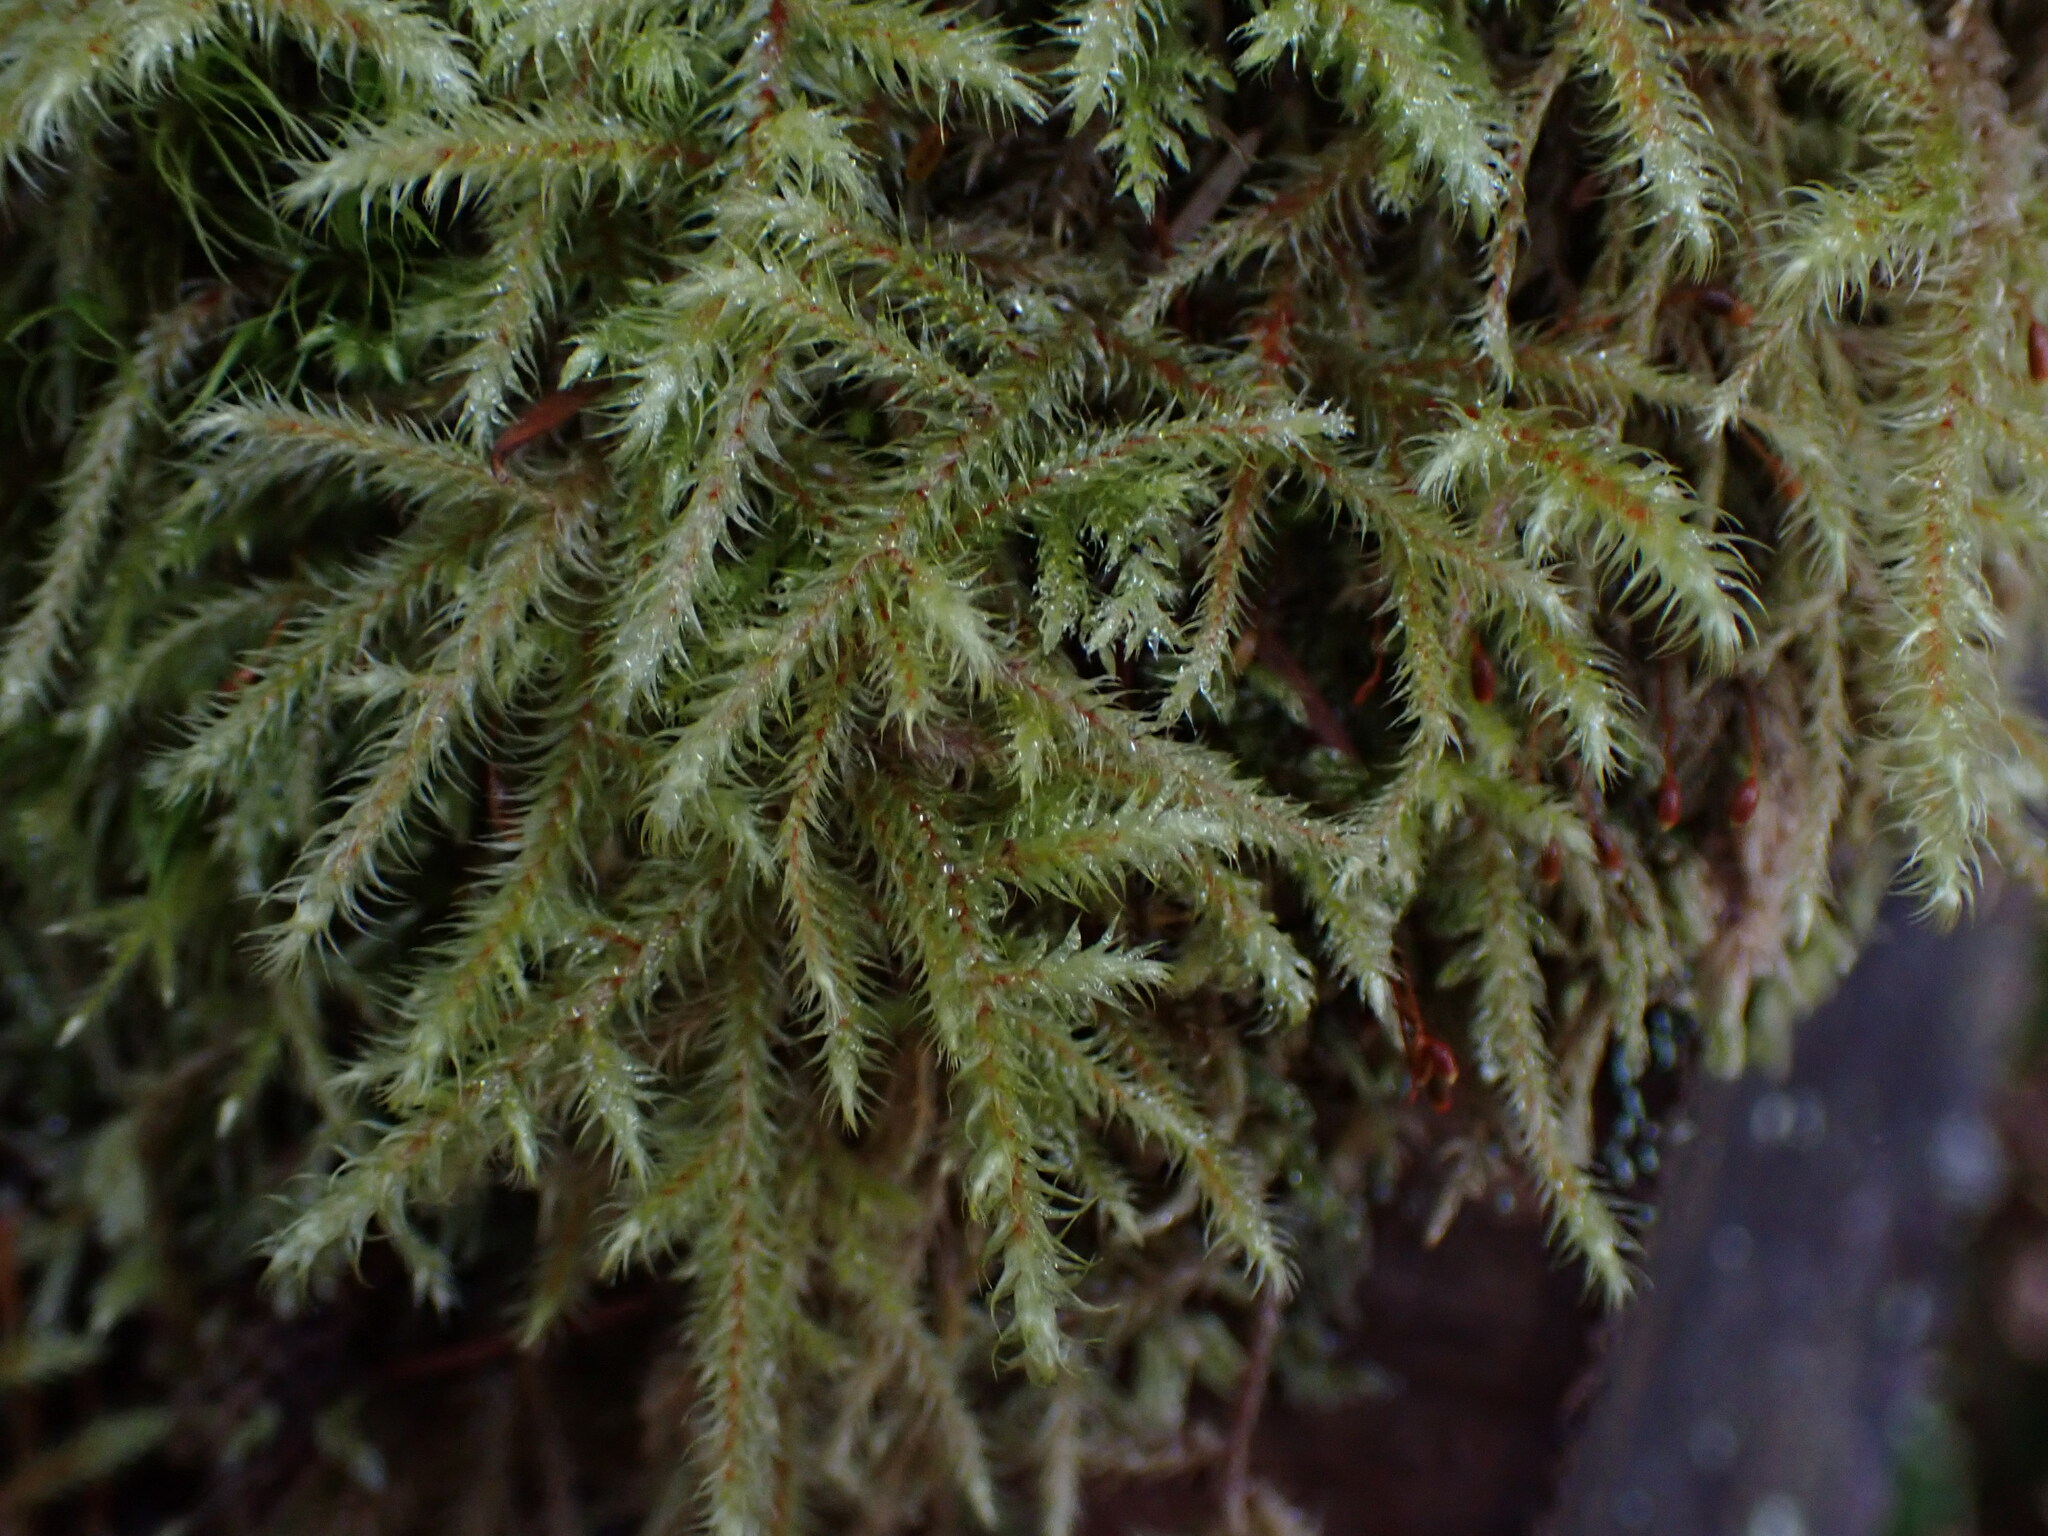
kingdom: Plantae
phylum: Bryophyta
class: Bryopsida
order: Hypnales
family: Hylocomiaceae
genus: Rhytidiadelphus
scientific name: Rhytidiadelphus loreus
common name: Lanky moss
